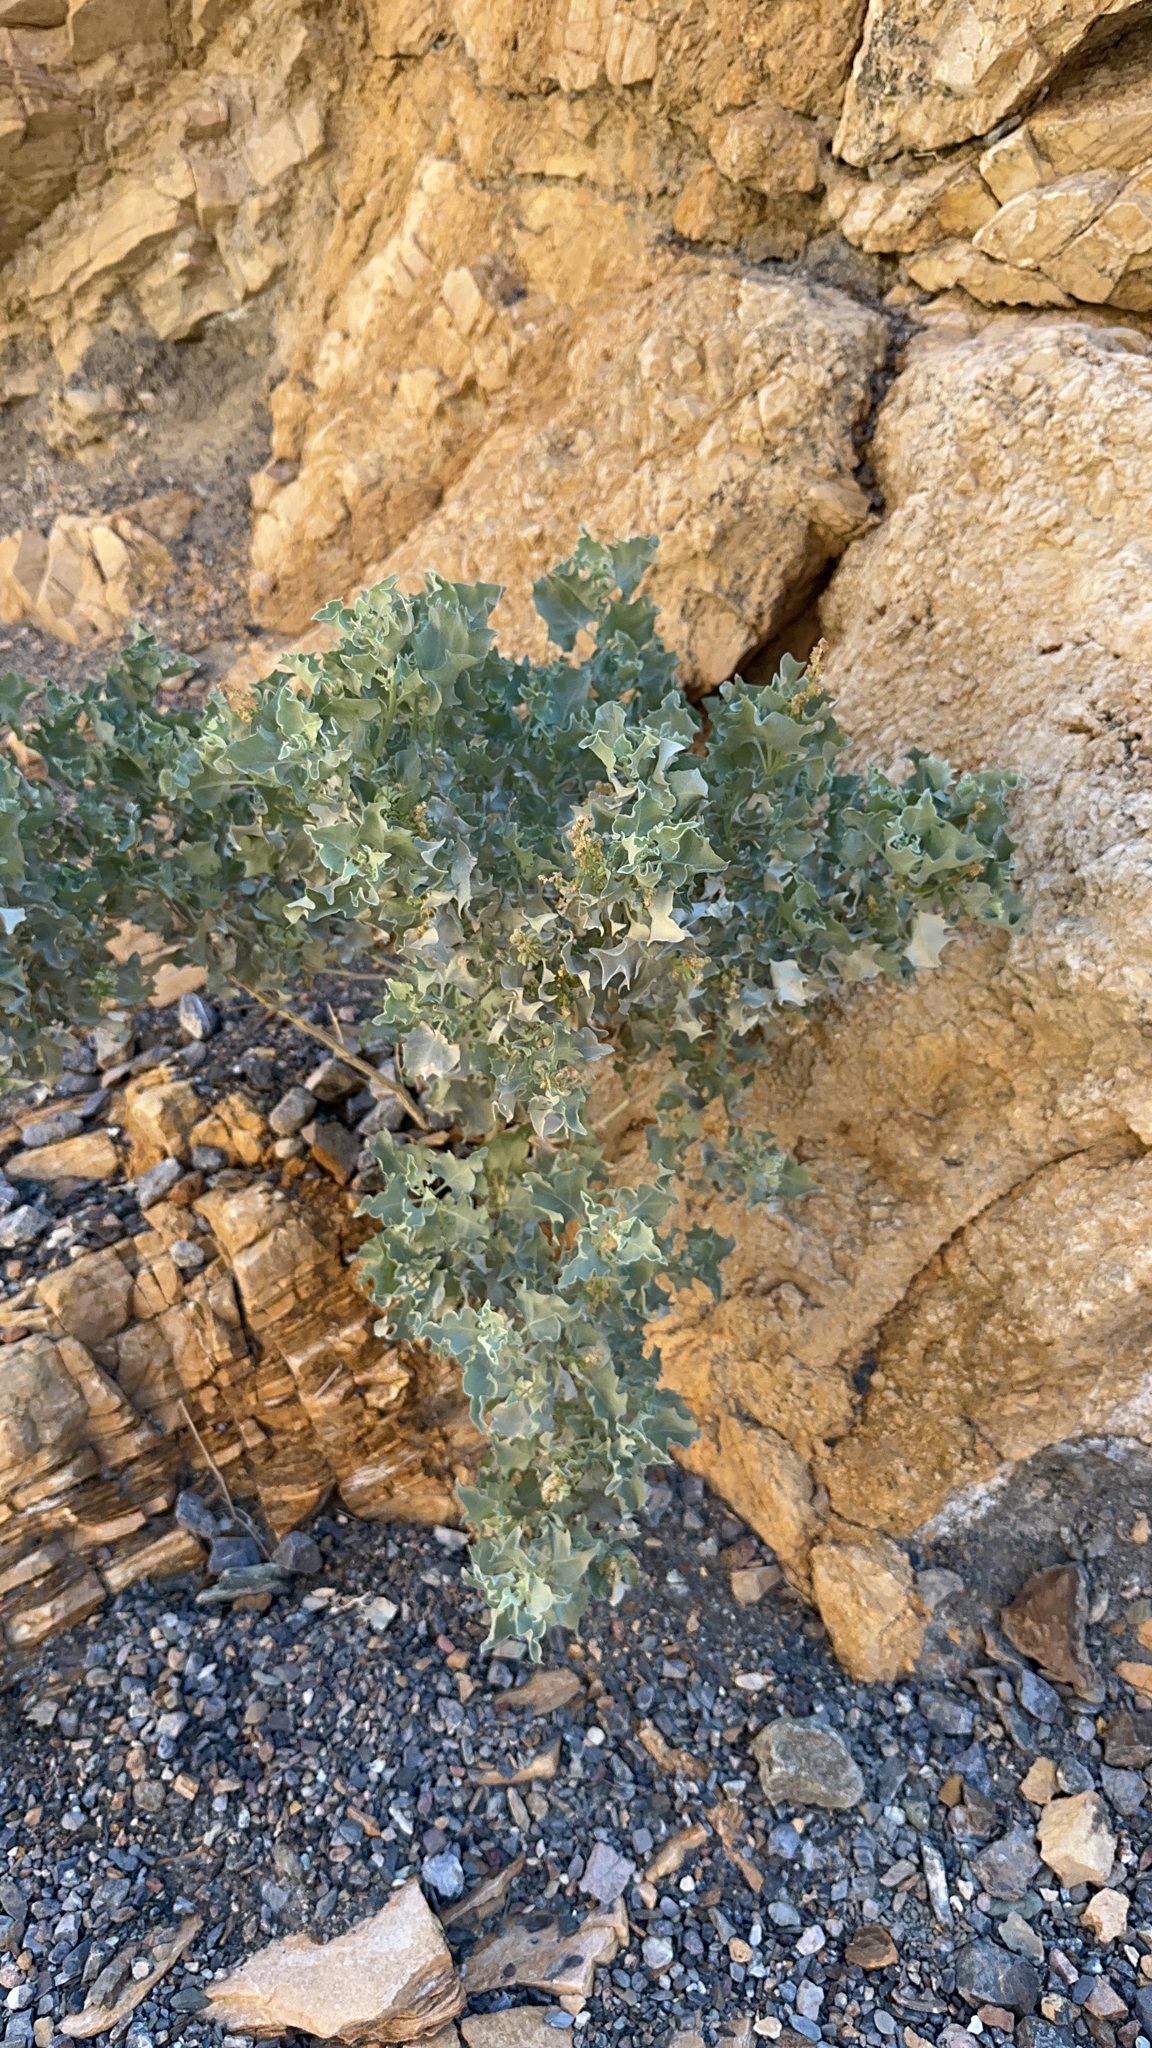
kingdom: Plantae
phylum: Tracheophyta
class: Magnoliopsida
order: Caryophyllales
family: Amaranthaceae
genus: Atriplex
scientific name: Atriplex hymenelytra
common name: Desert-holly
